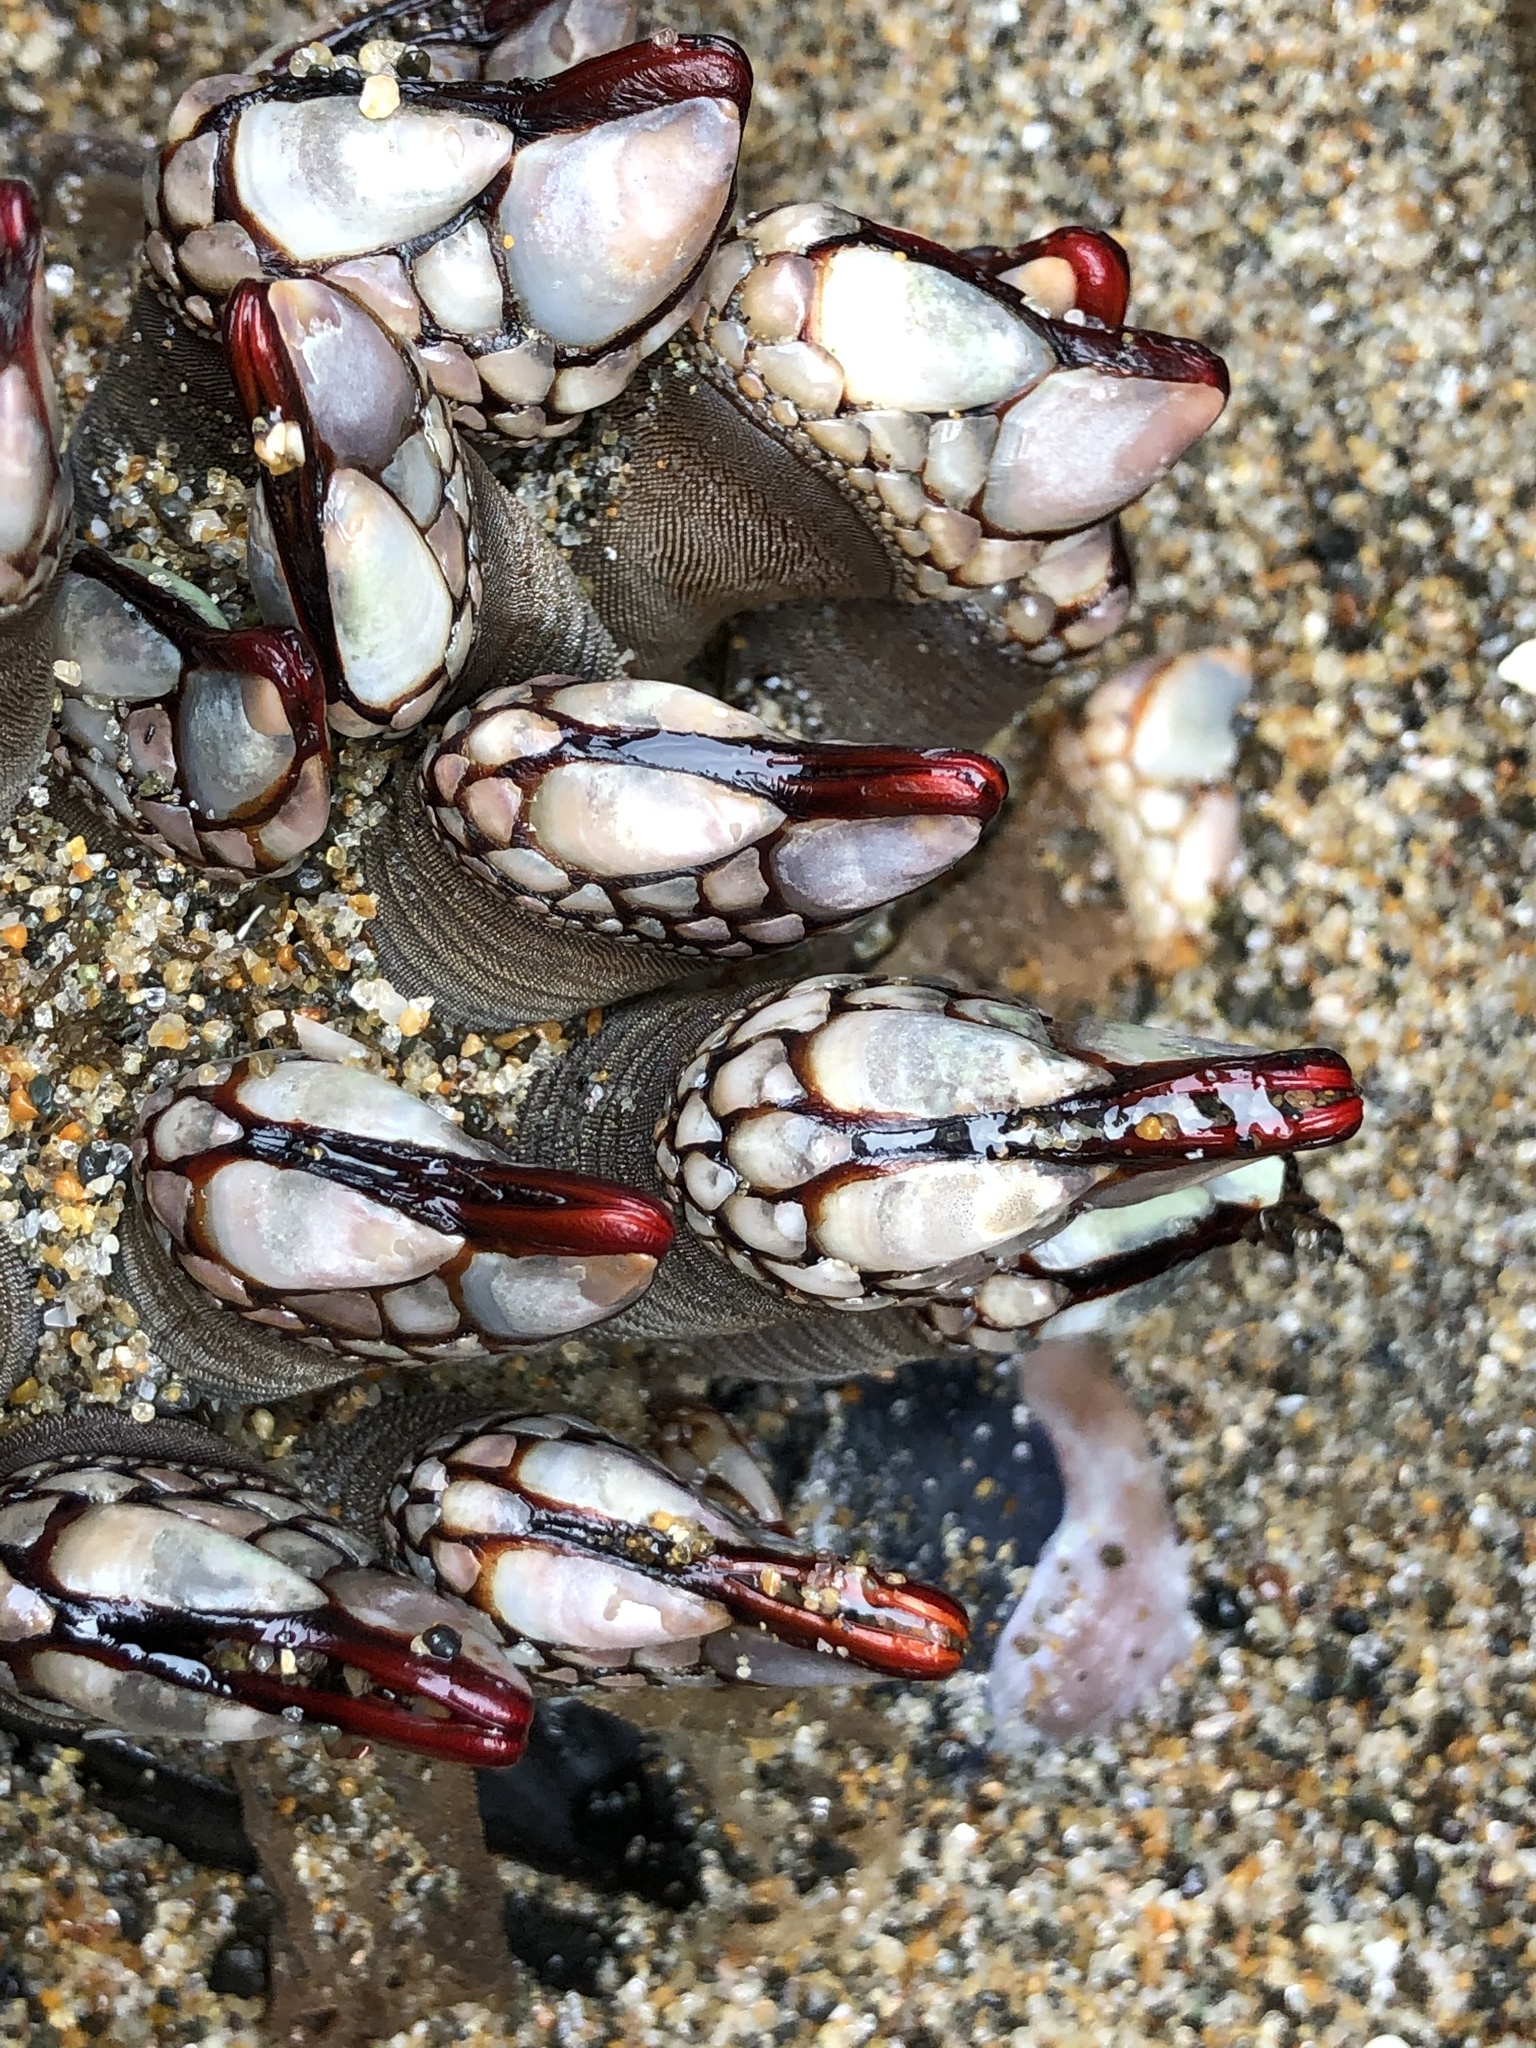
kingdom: Animalia
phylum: Arthropoda
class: Maxillopoda
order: Pedunculata
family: Pollicipedidae
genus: Pollicipes
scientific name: Pollicipes polymerus
